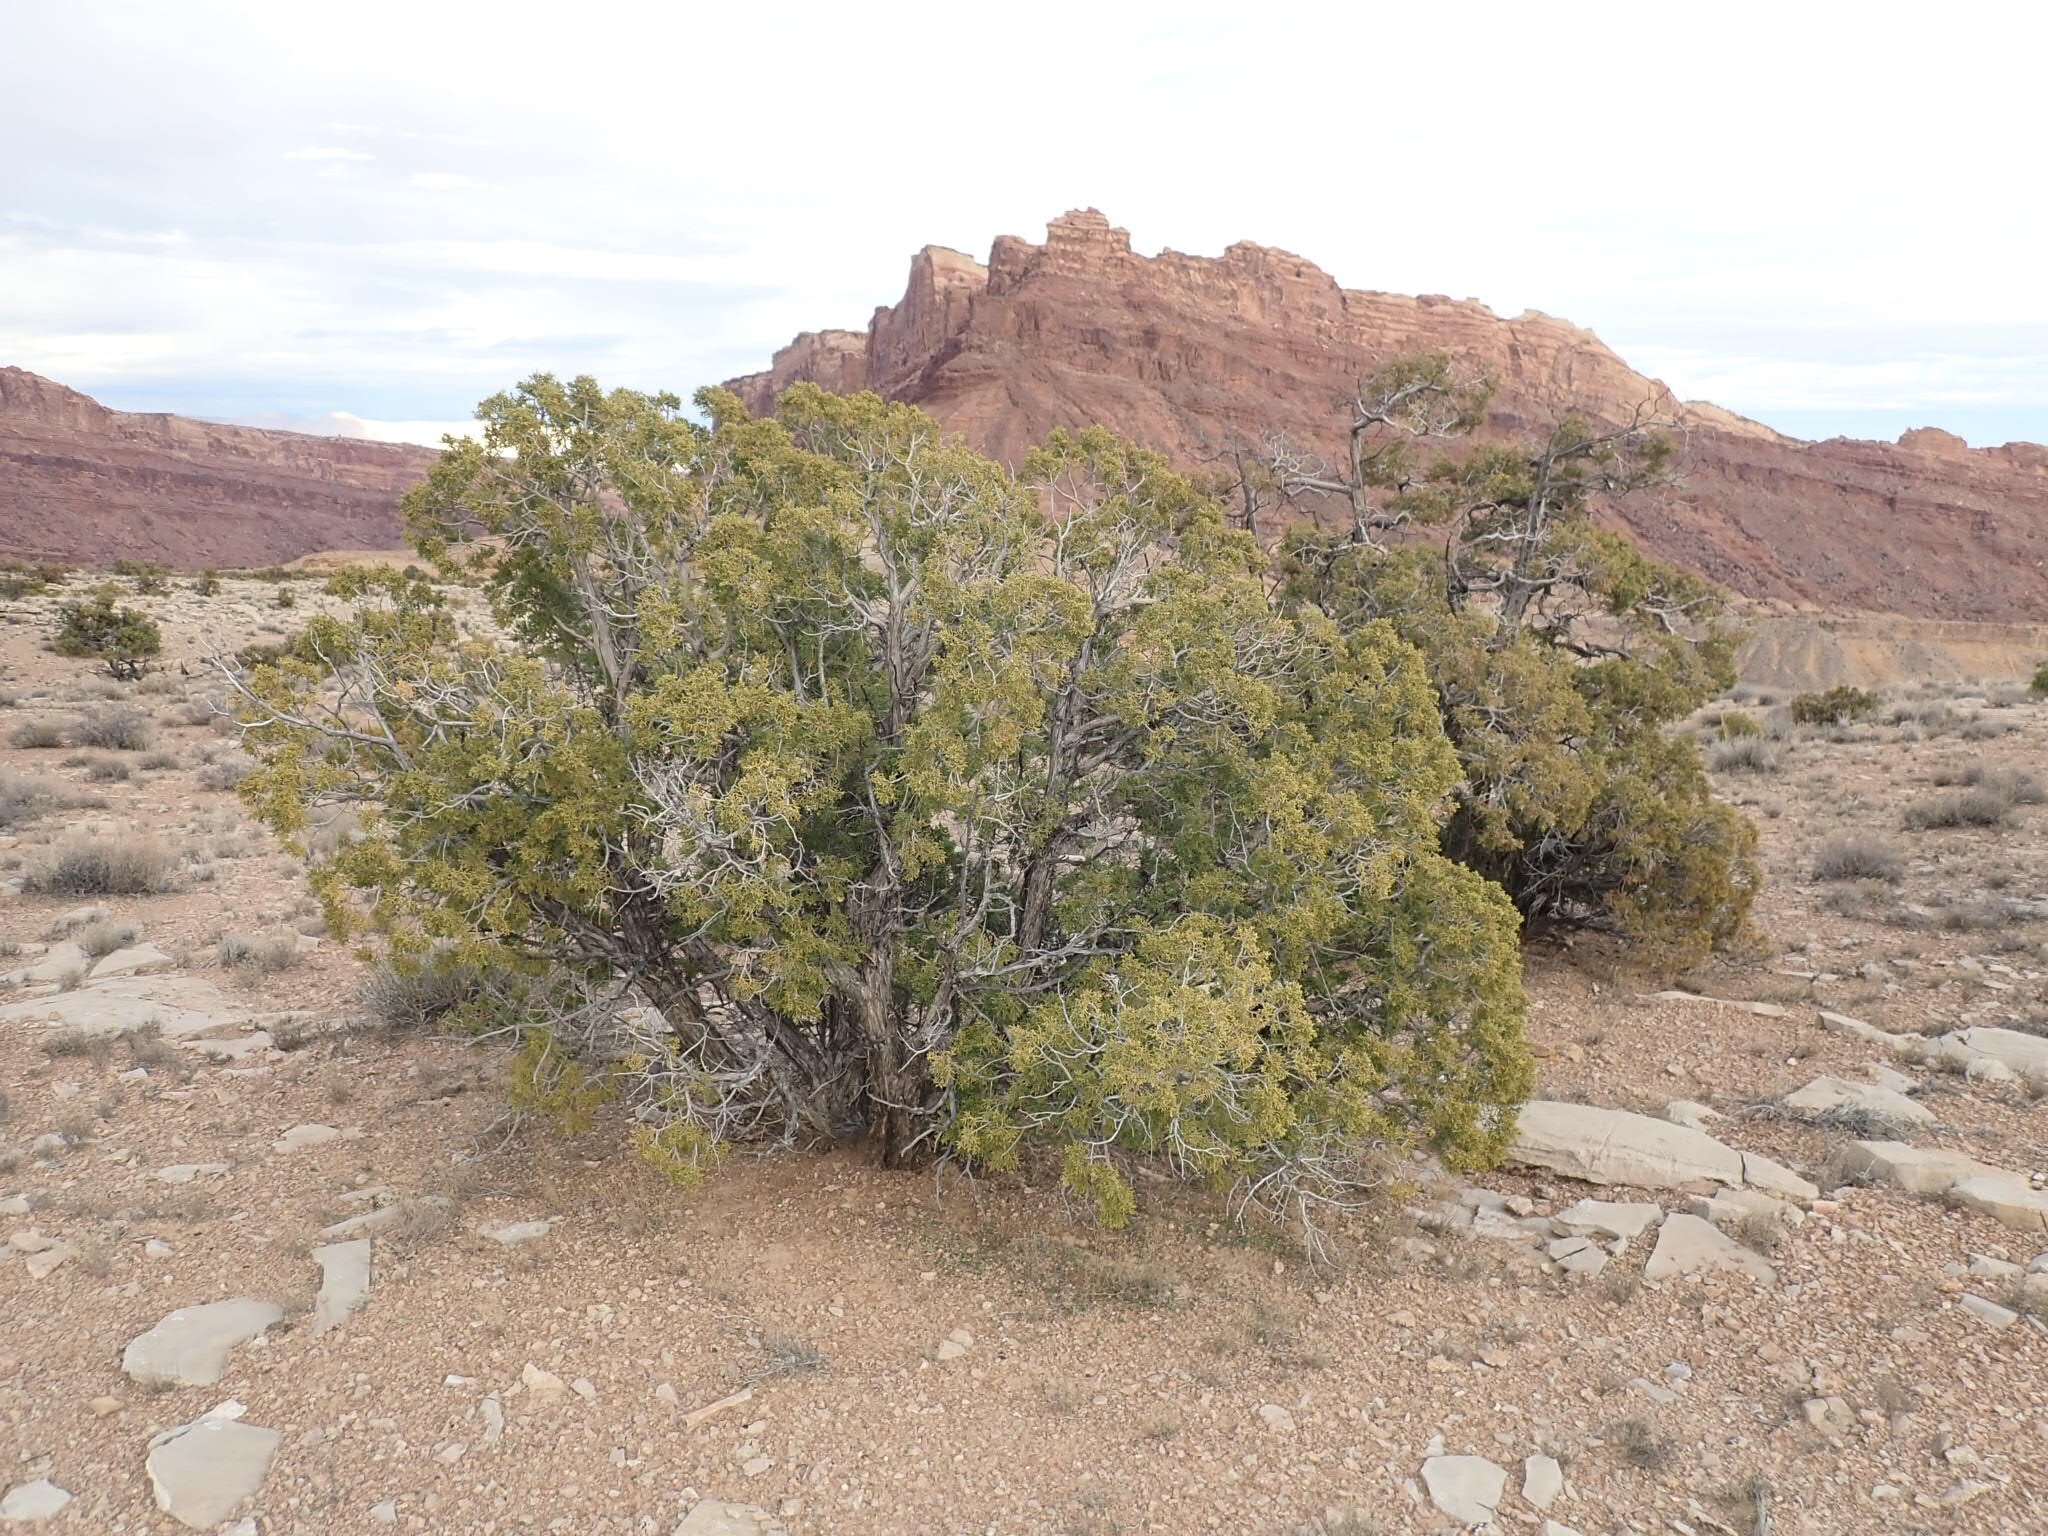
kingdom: Plantae
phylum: Tracheophyta
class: Pinopsida
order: Pinales
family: Cupressaceae
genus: Juniperus
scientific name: Juniperus osteosperma
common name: Utah juniper
